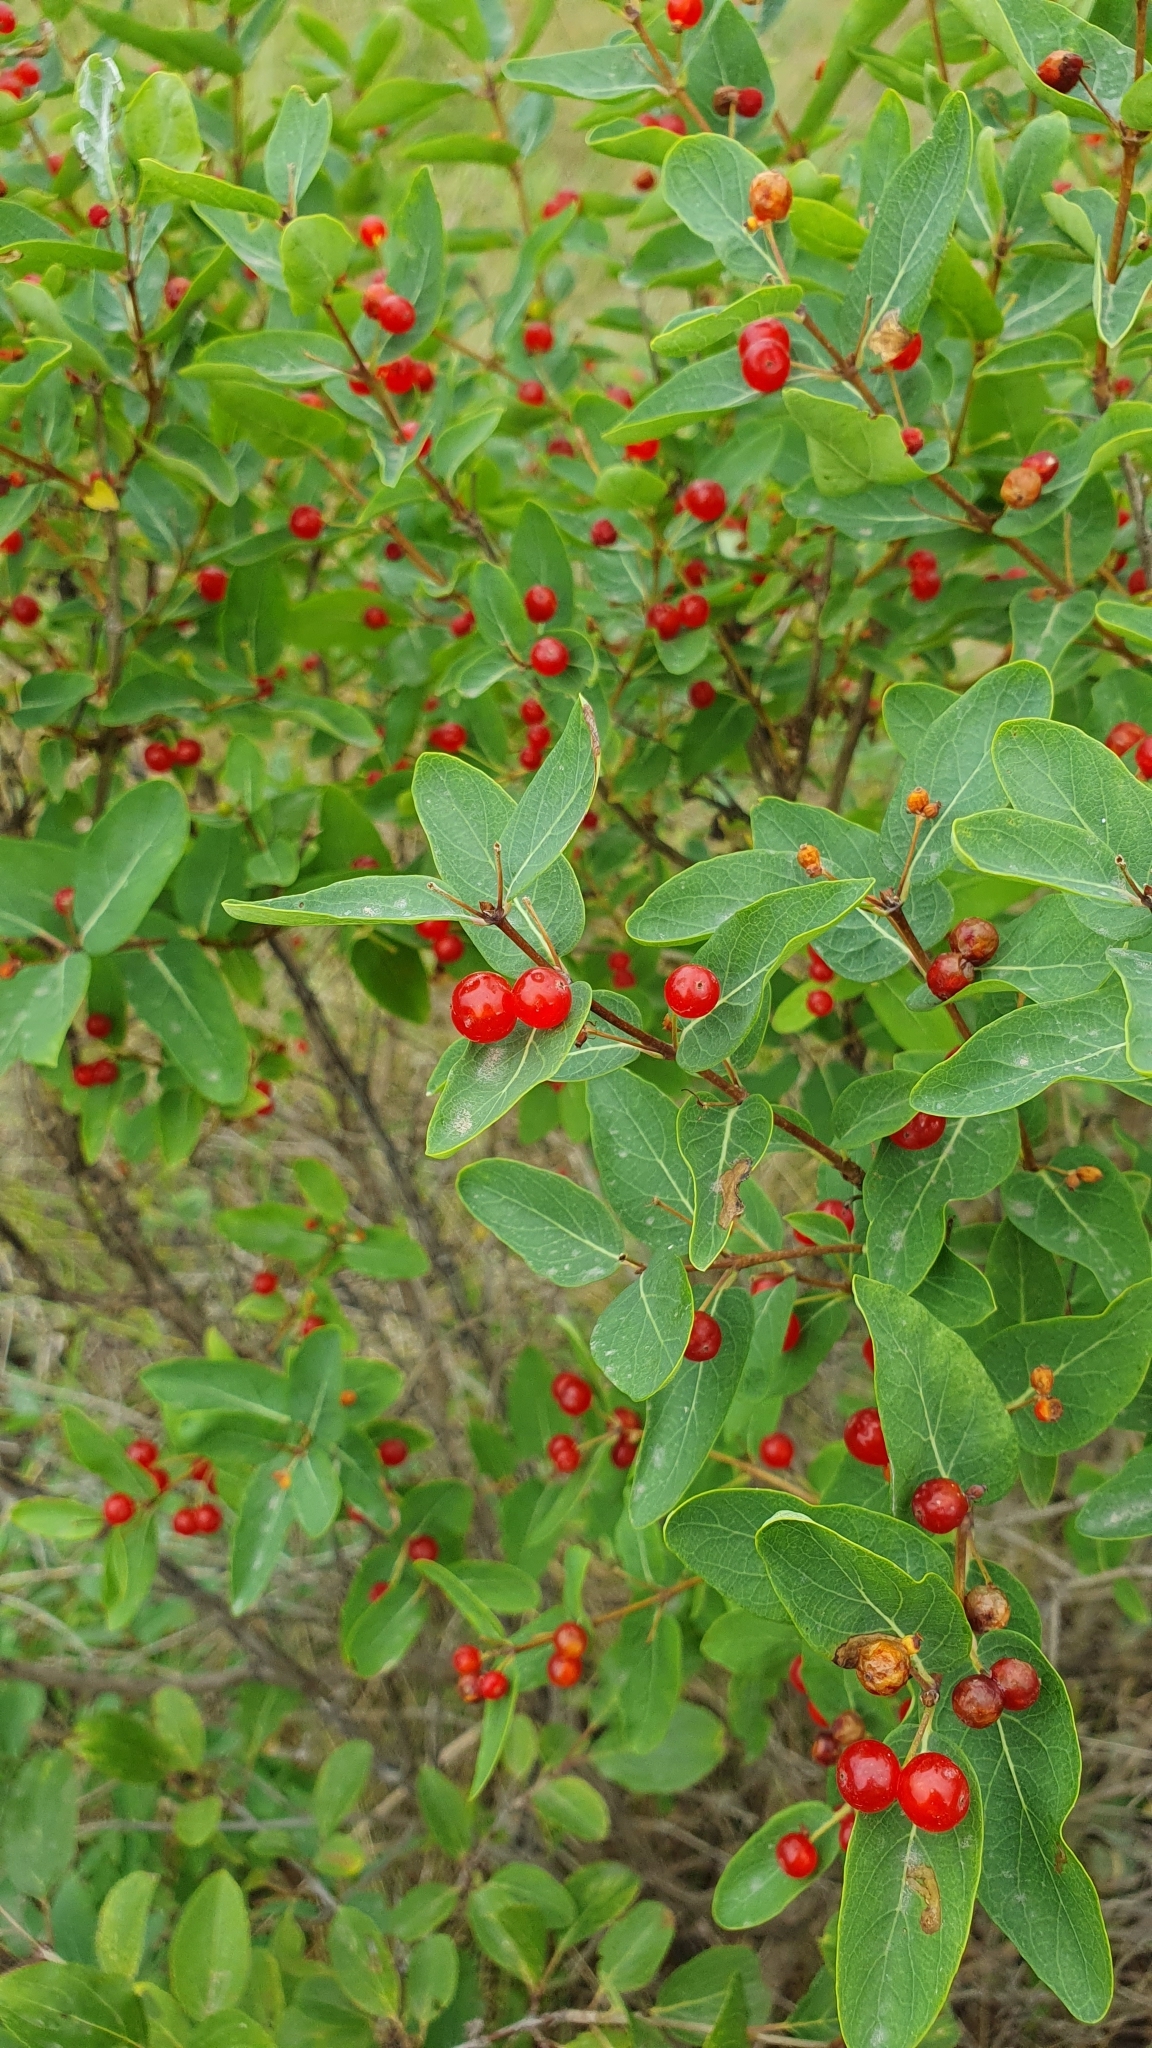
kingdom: Plantae
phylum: Tracheophyta
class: Magnoliopsida
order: Dipsacales
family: Caprifoliaceae
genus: Lonicera
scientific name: Lonicera tatarica
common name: Tatarian honeysuckle
